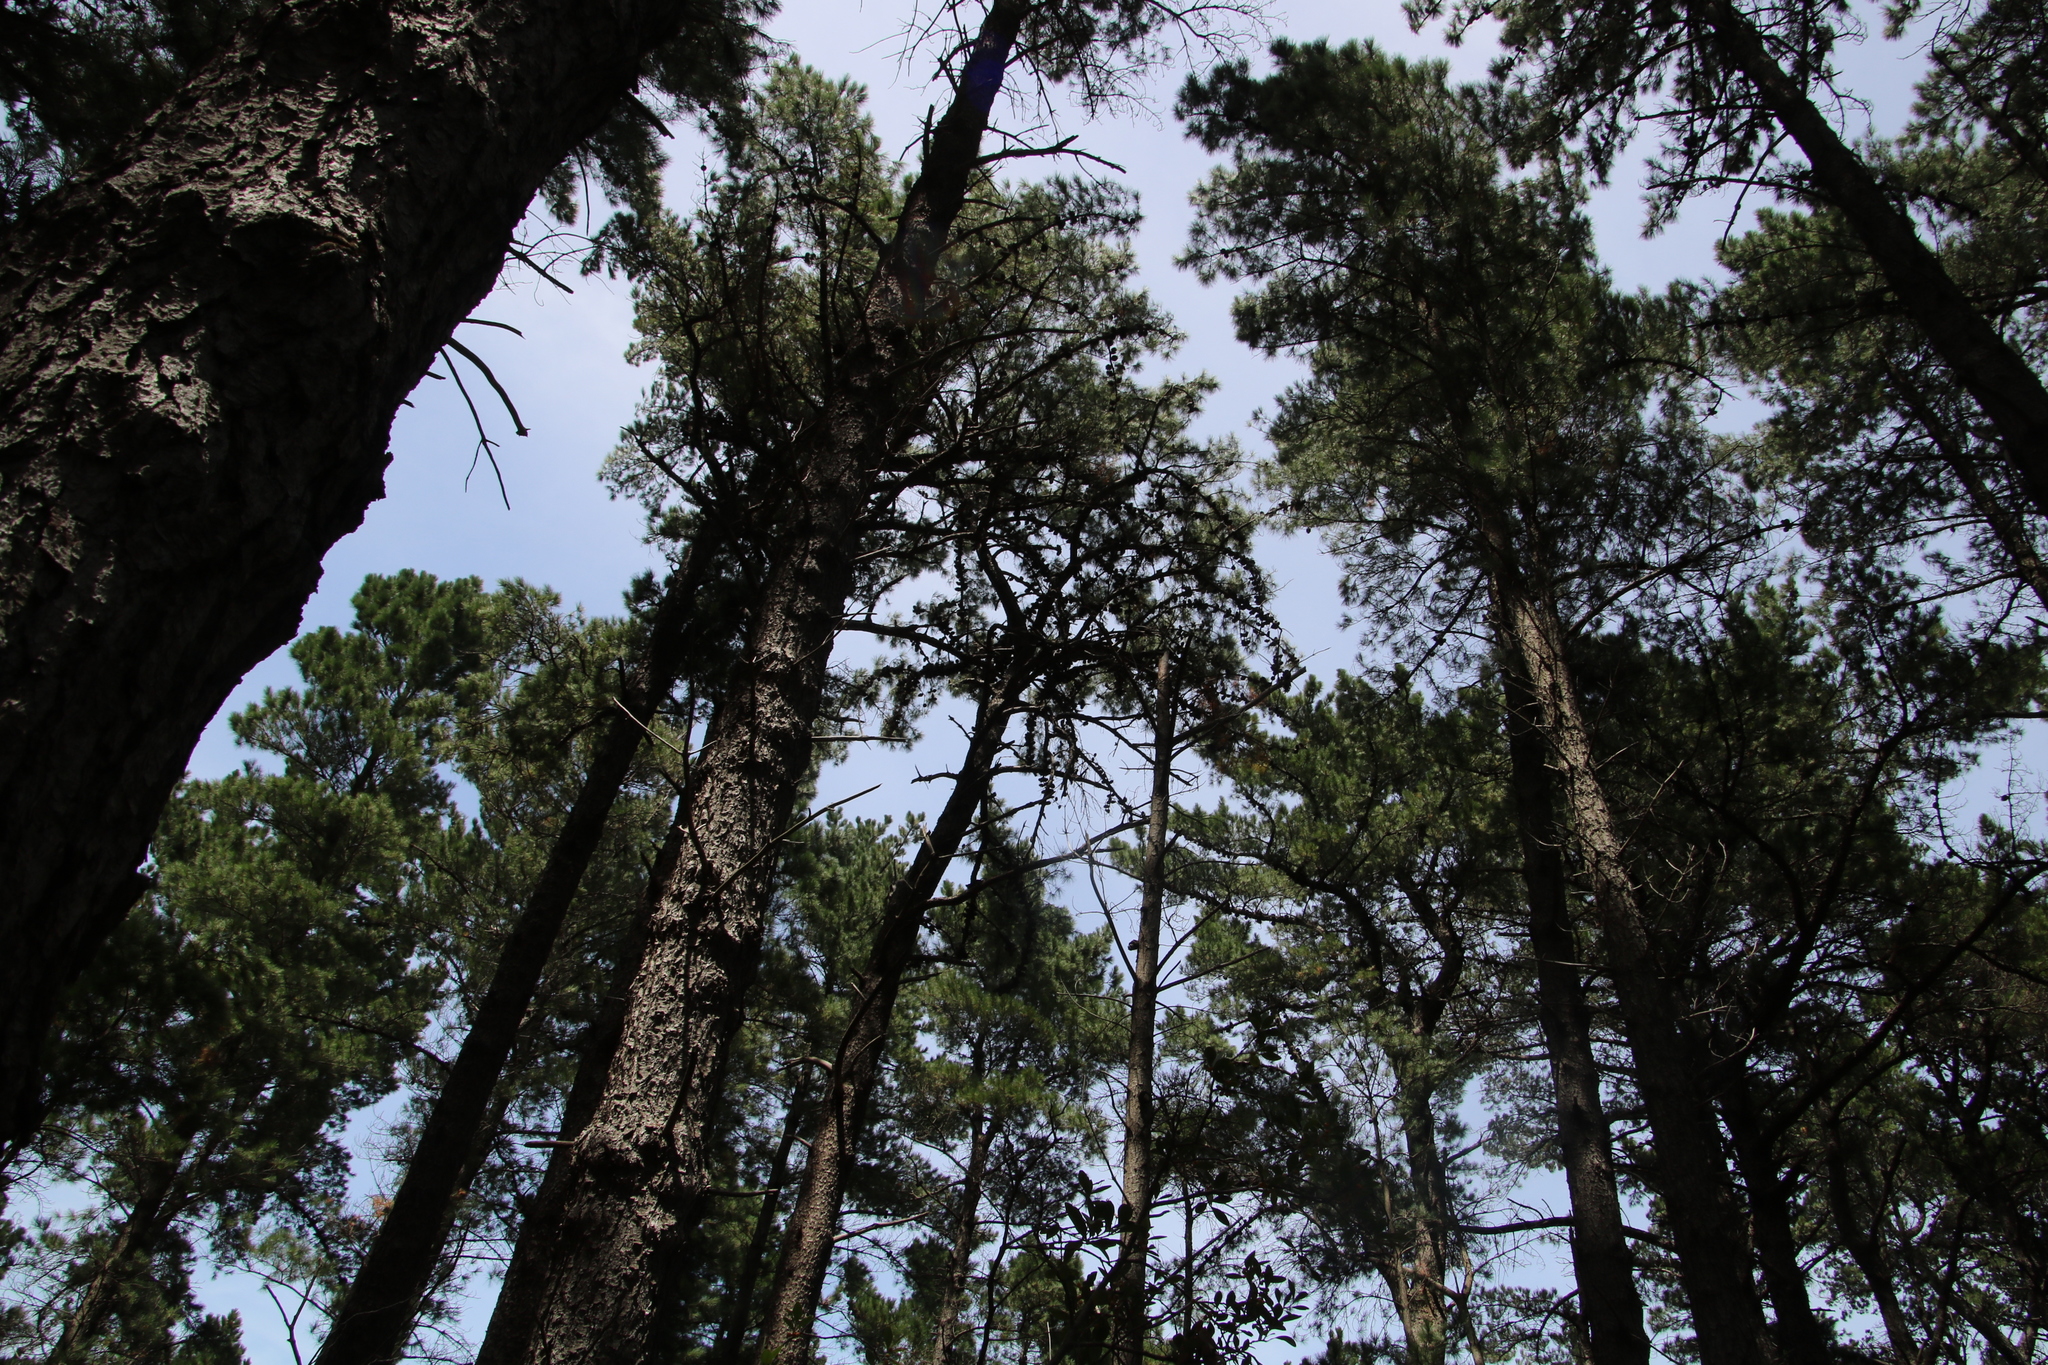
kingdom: Plantae
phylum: Tracheophyta
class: Pinopsida
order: Pinales
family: Pinaceae
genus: Pinus
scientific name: Pinus radiata
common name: Monterey pine
